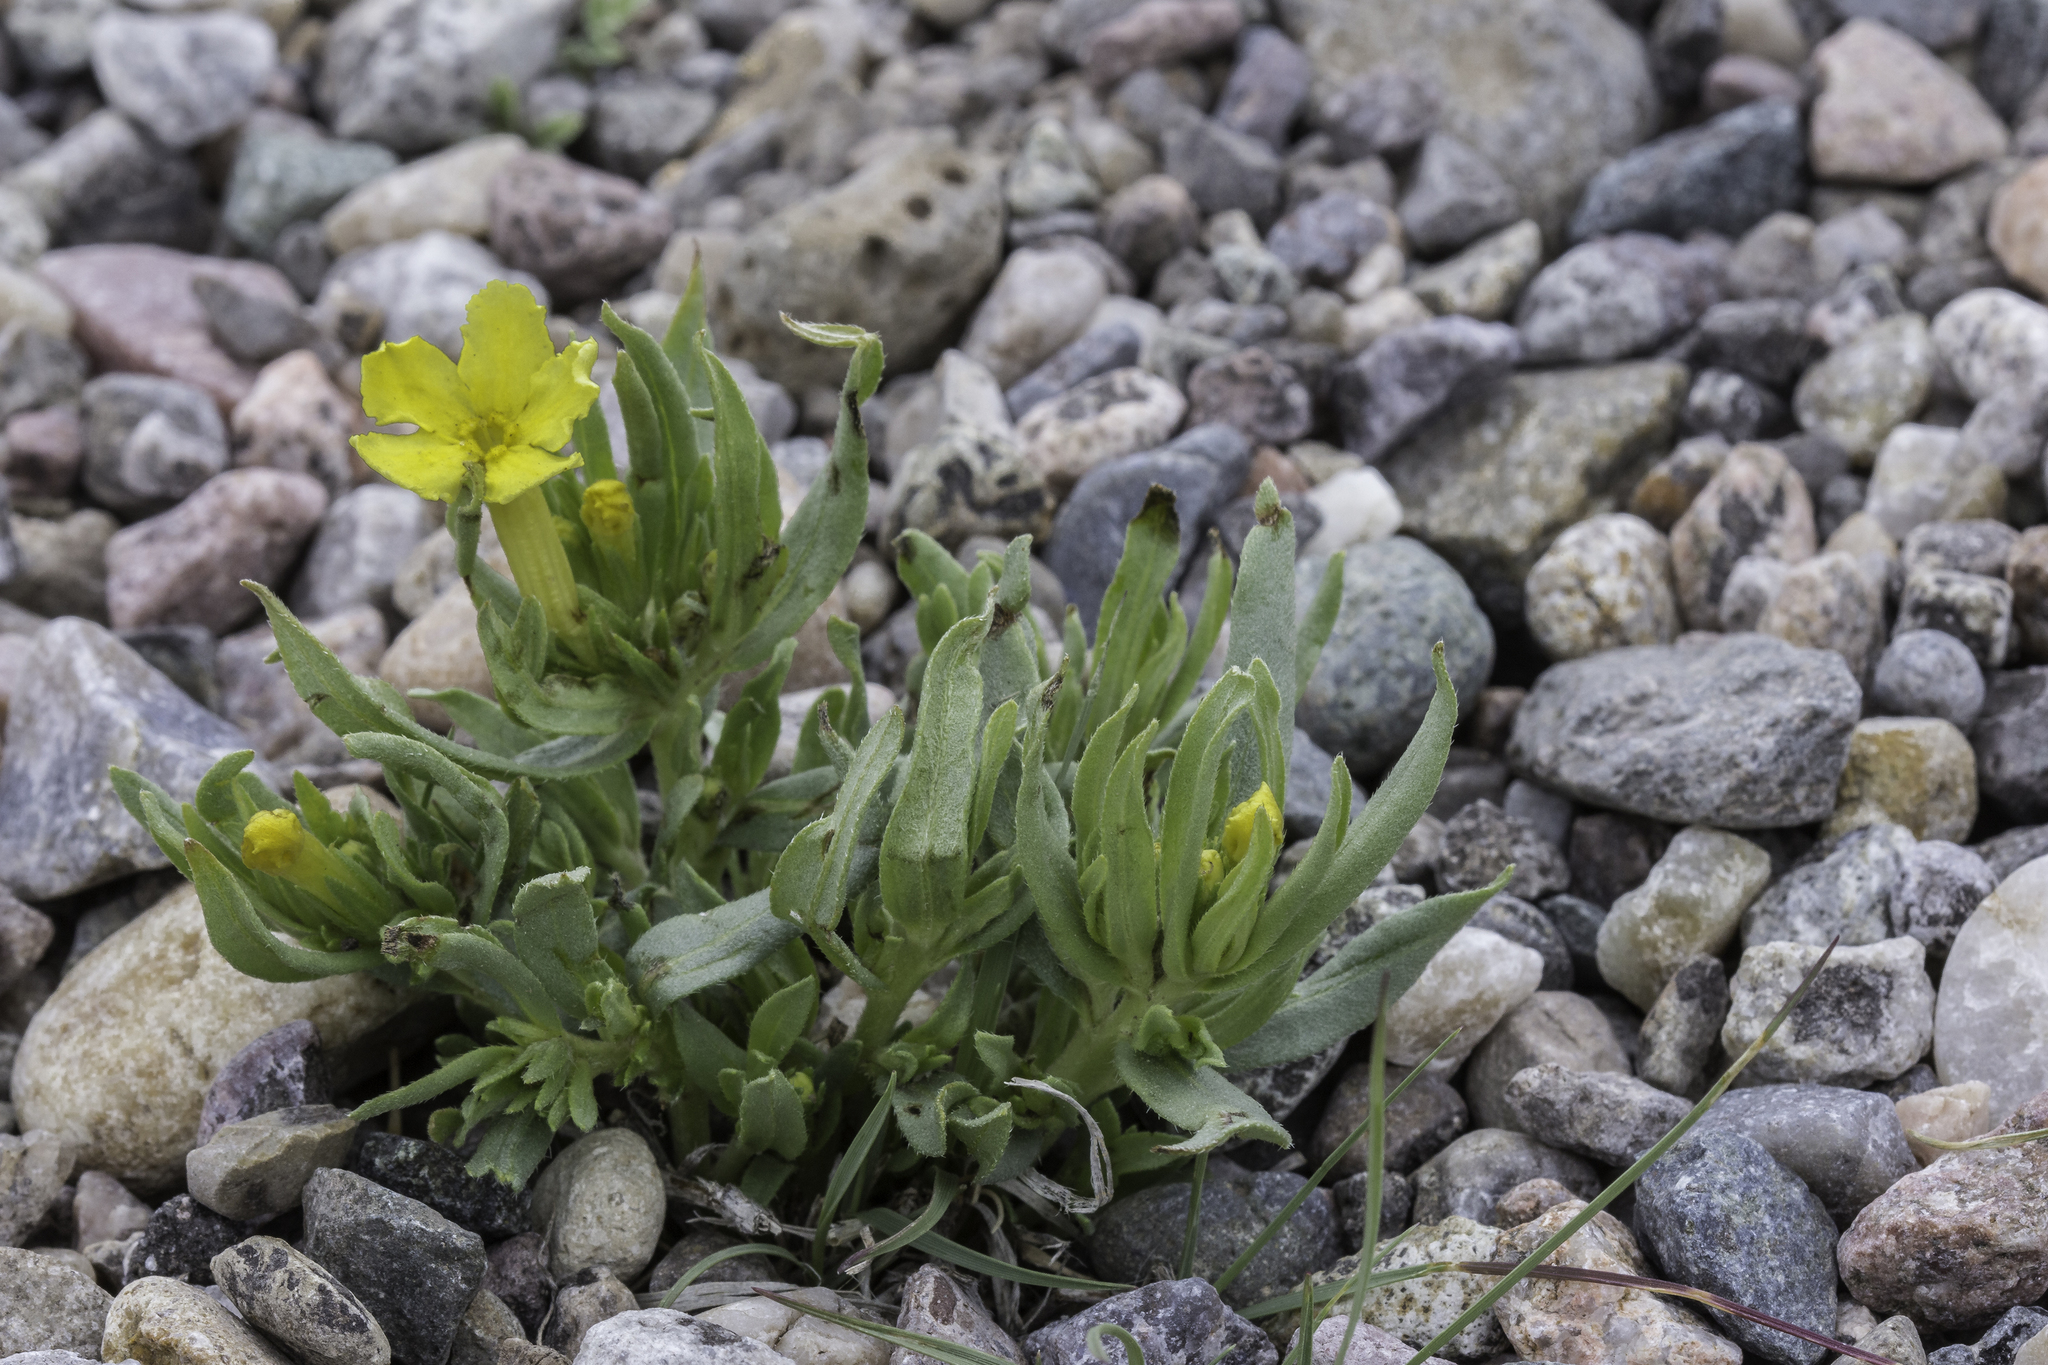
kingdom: Plantae
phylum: Tracheophyta
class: Magnoliopsida
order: Boraginales
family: Boraginaceae
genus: Lithospermum
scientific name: Lithospermum incisum
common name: Fringed gromwell
